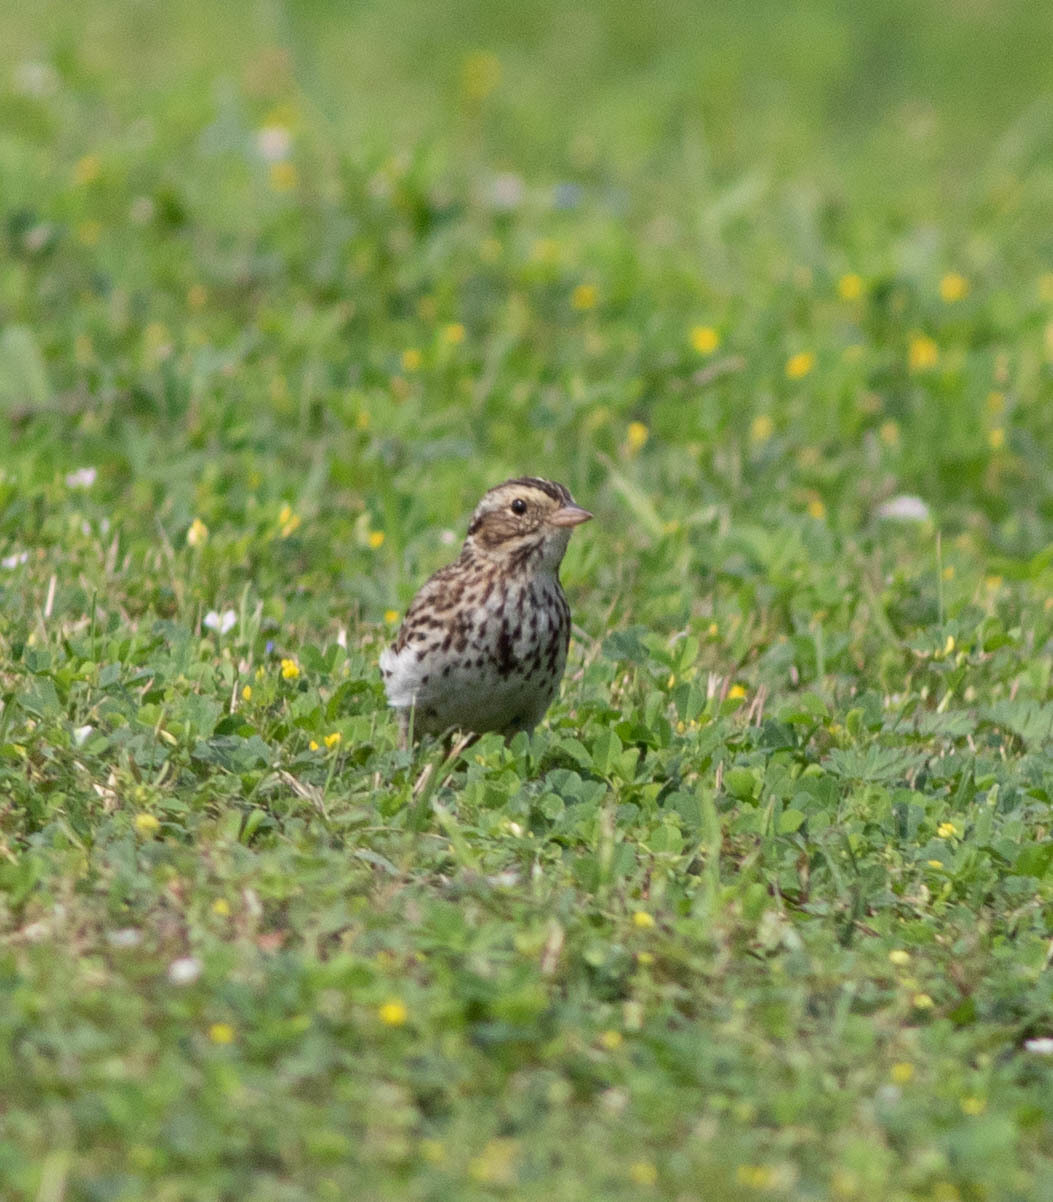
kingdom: Animalia
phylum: Chordata
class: Aves
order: Passeriformes
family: Passerellidae
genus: Passerculus
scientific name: Passerculus sandwichensis
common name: Savannah sparrow
